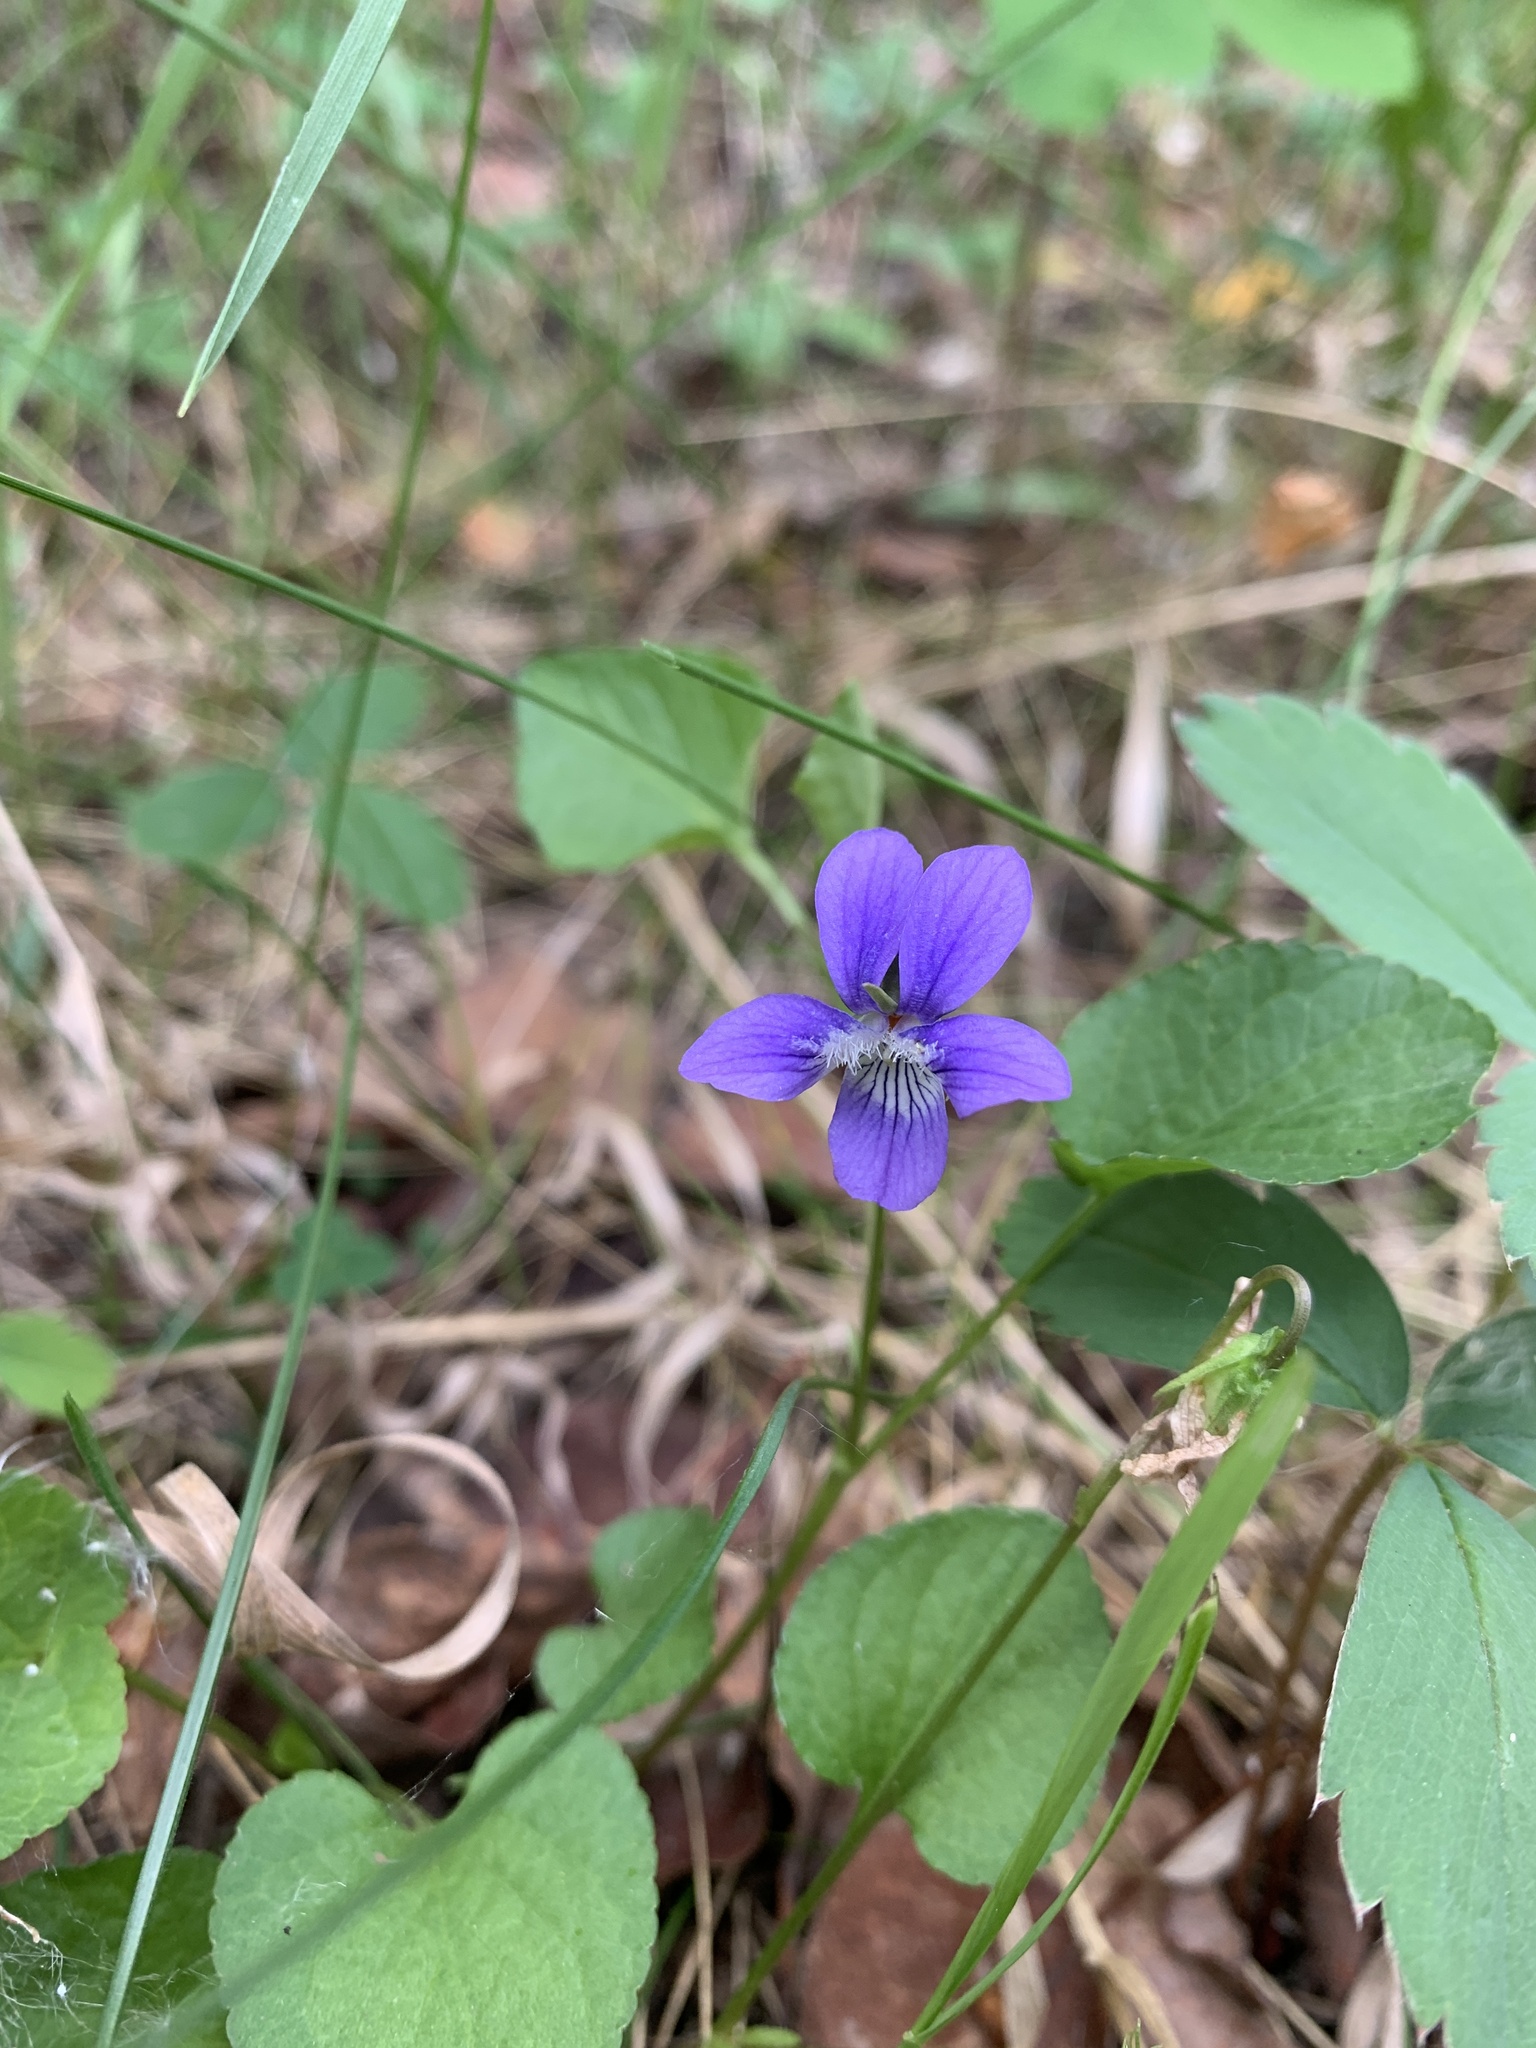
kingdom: Plantae
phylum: Tracheophyta
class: Magnoliopsida
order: Malpighiales
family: Violaceae
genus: Viola
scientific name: Viola adunca
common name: Sand violet
